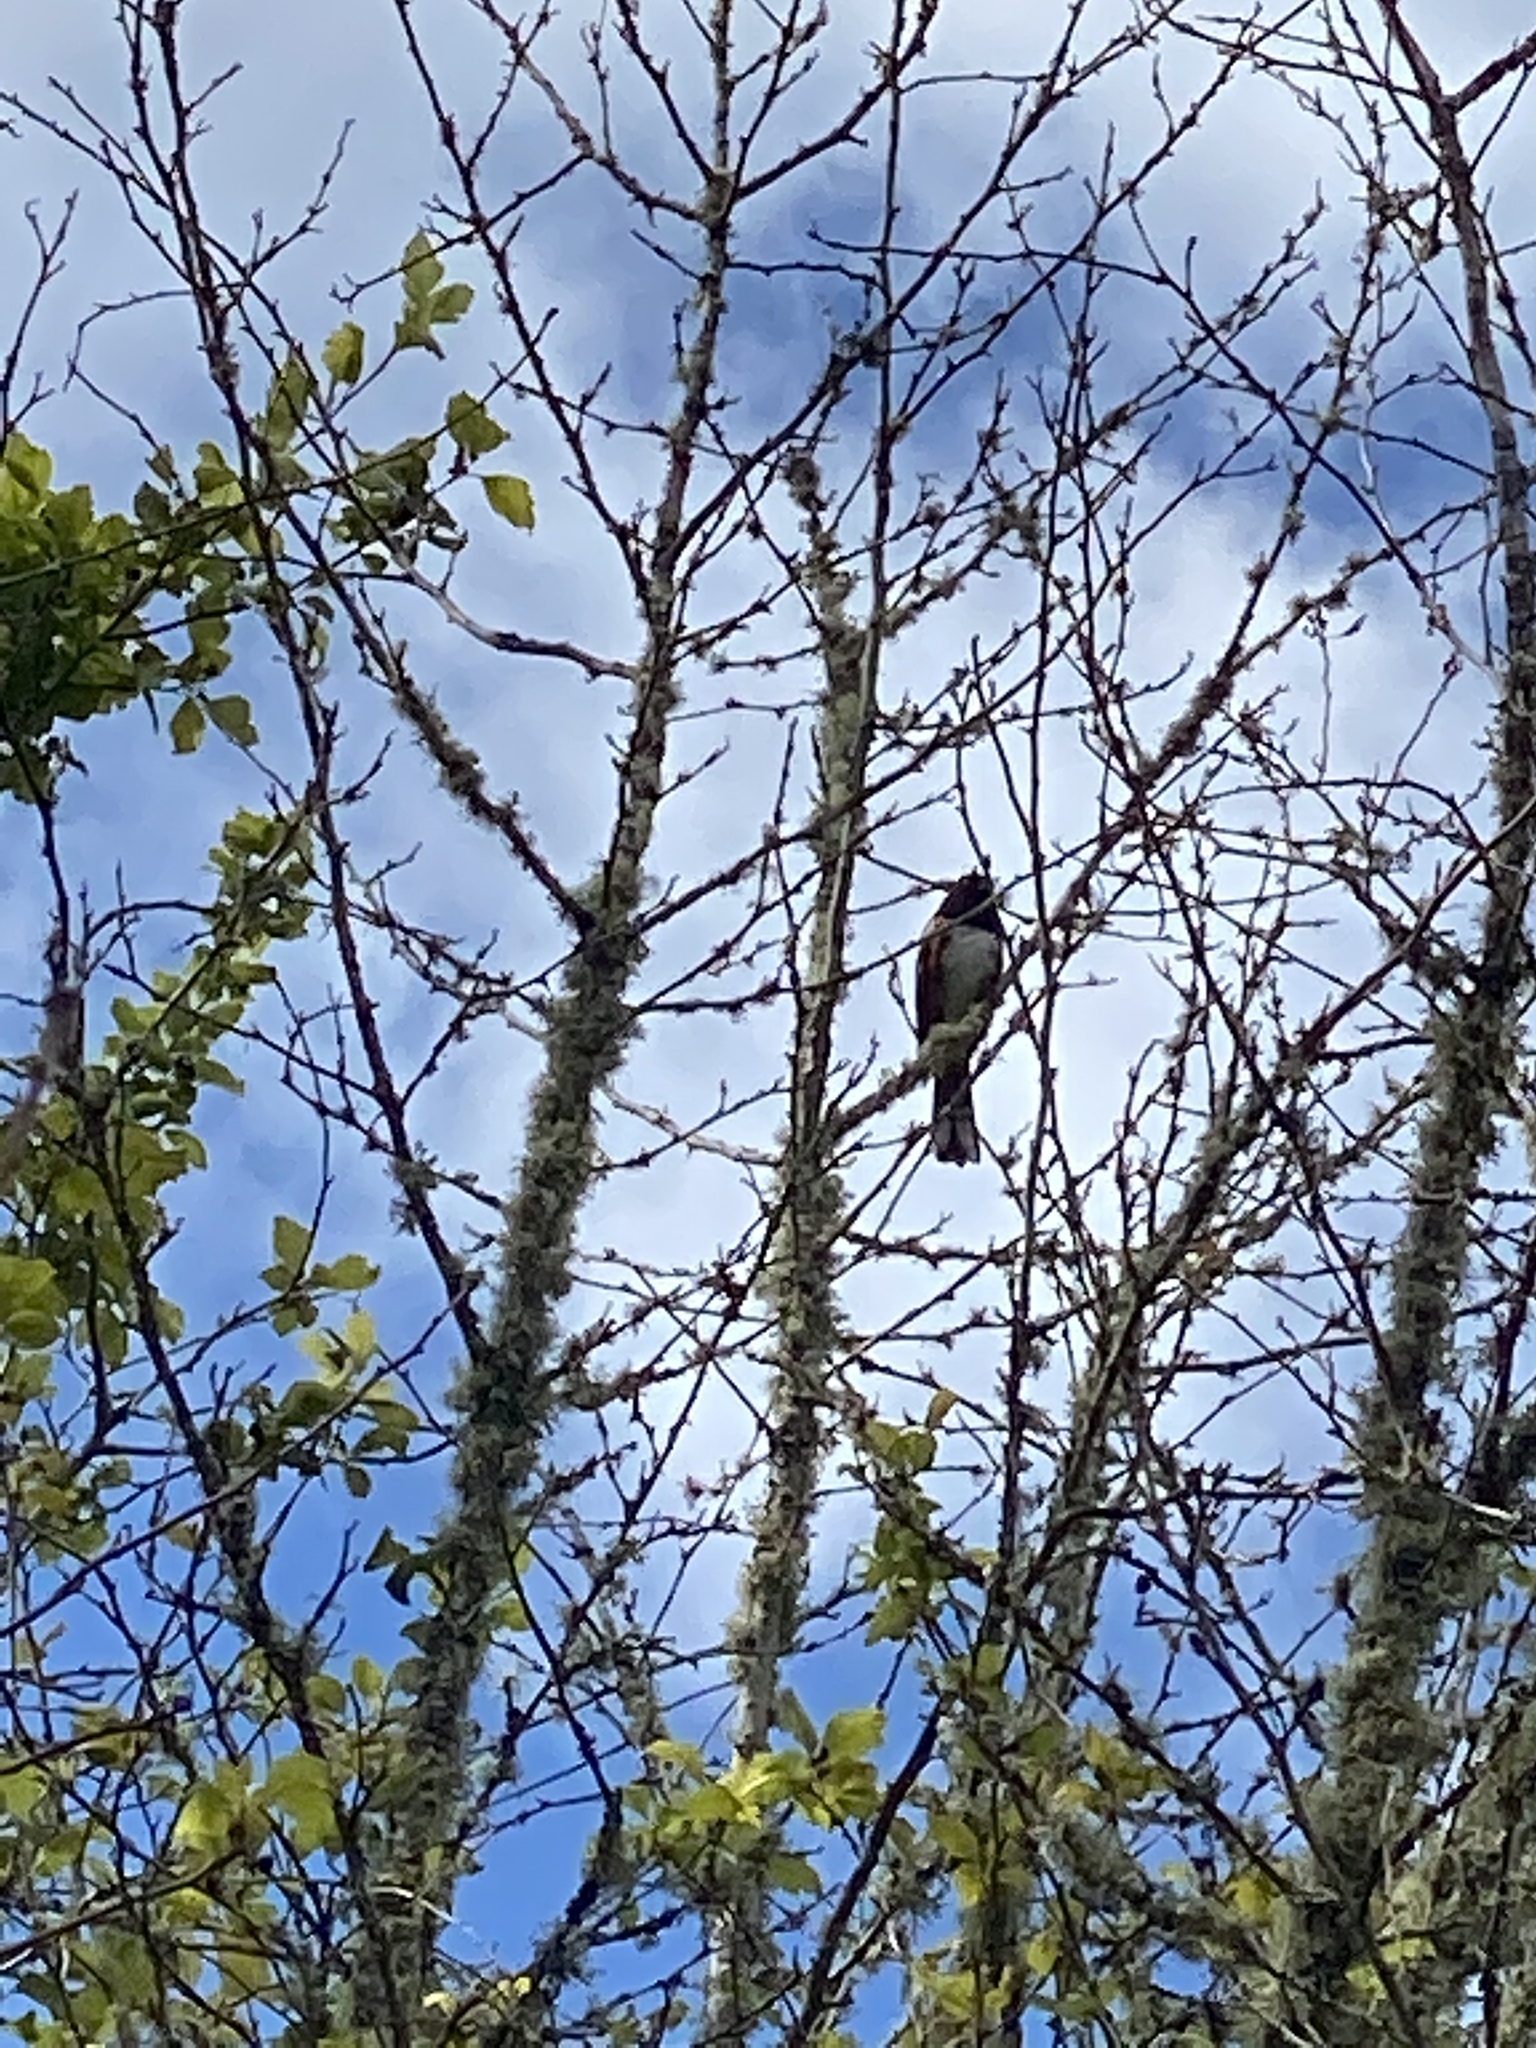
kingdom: Animalia
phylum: Chordata
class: Aves
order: Passeriformes
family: Passerellidae
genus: Pipilo
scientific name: Pipilo maculatus
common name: Spotted towhee
